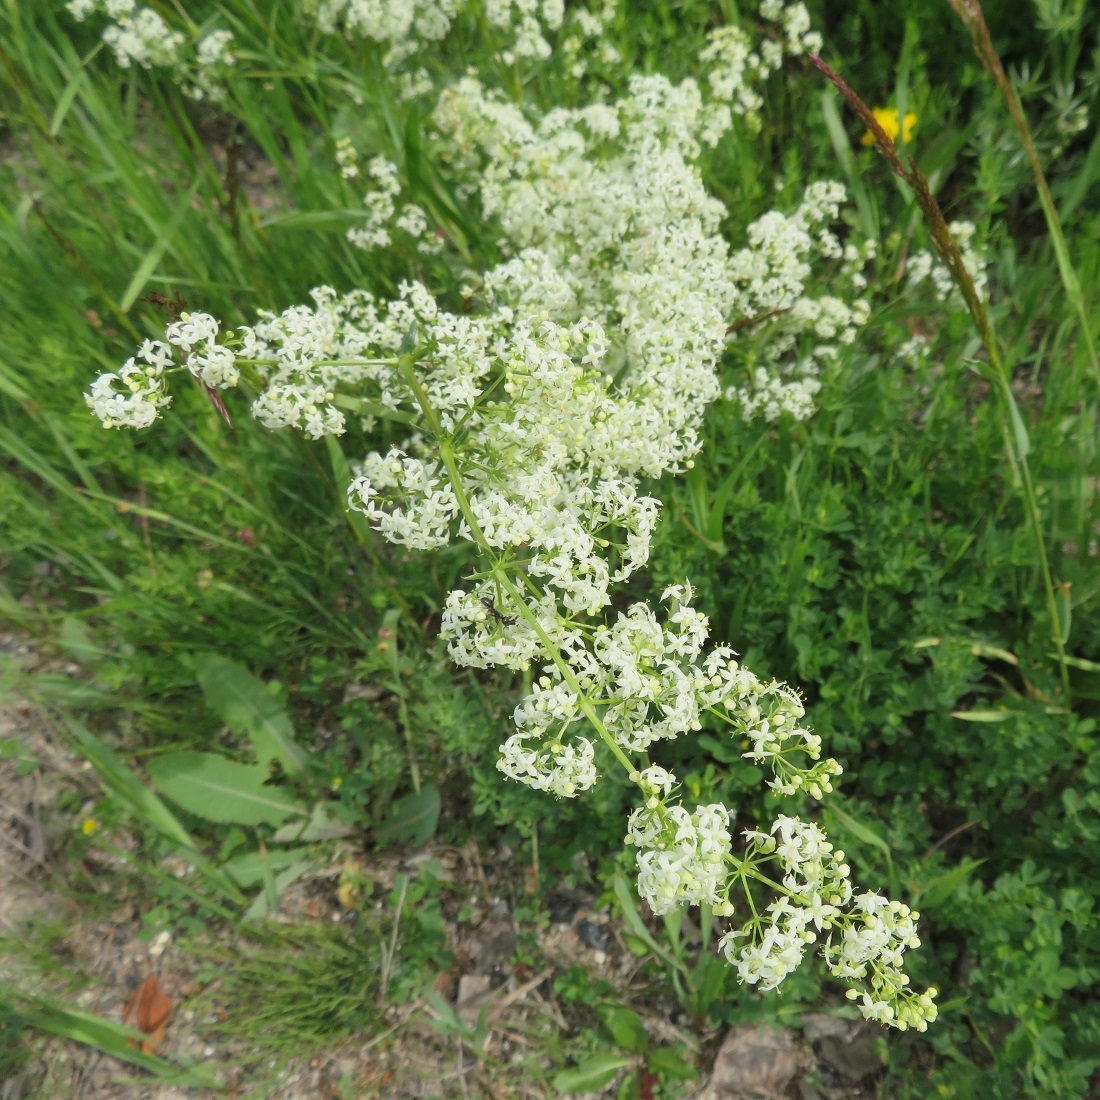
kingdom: Plantae
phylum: Tracheophyta
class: Magnoliopsida
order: Gentianales
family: Rubiaceae
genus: Galium
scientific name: Galium mollugo
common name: Hedge bedstraw
